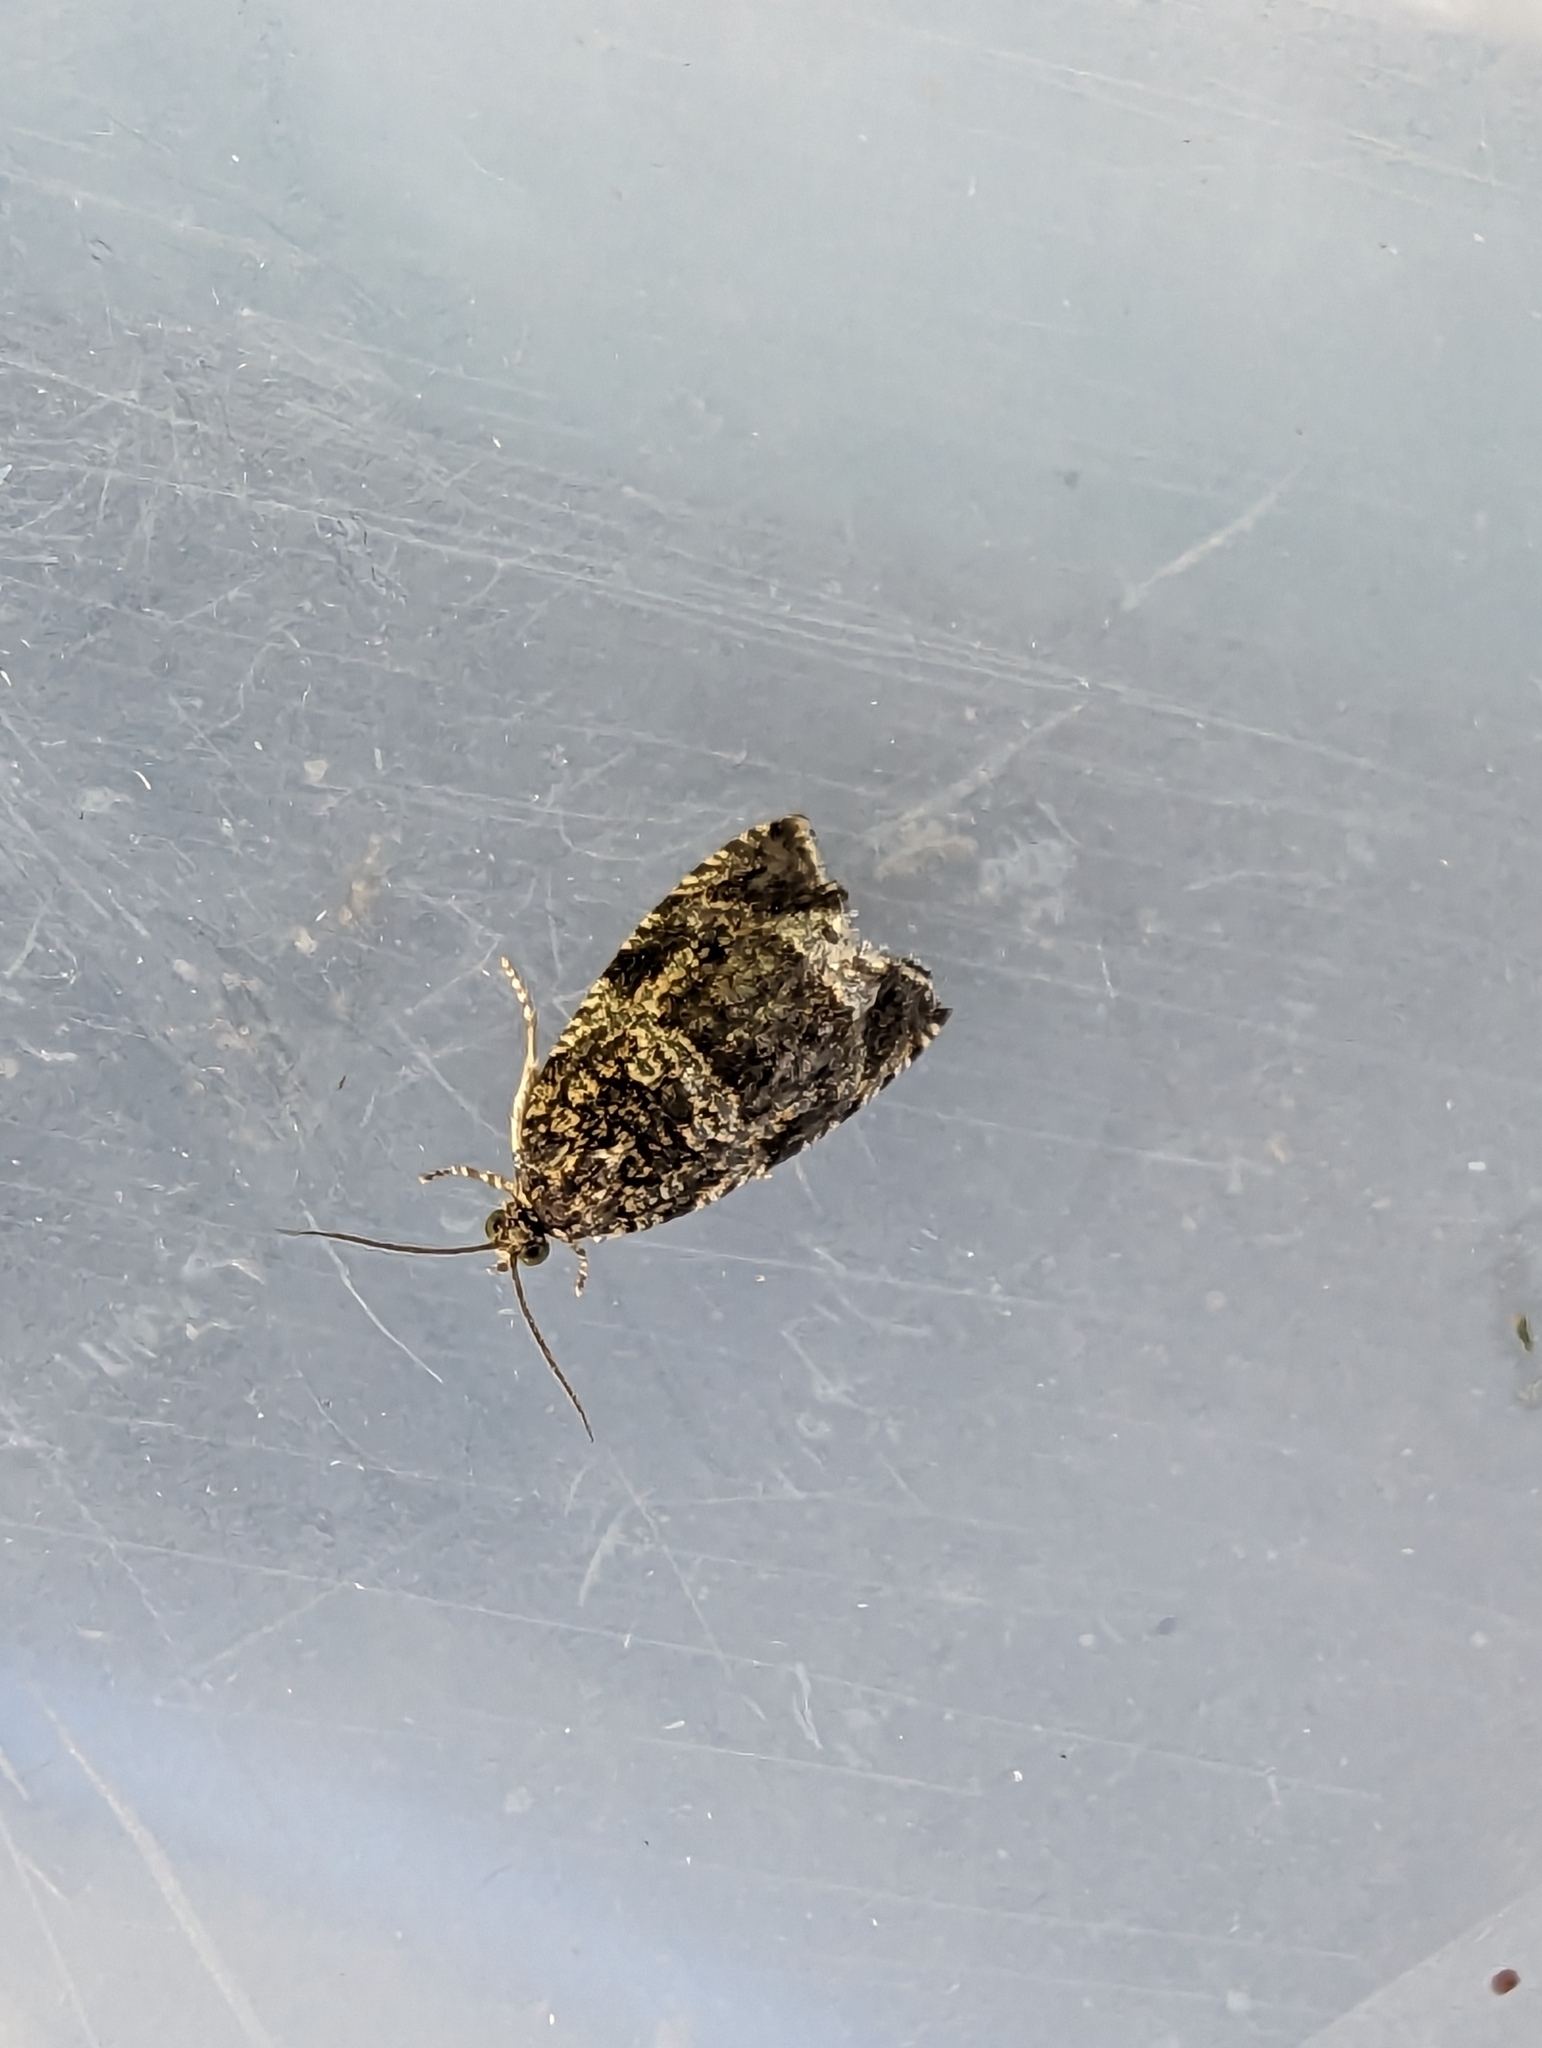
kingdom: Animalia
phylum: Arthropoda
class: Insecta
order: Lepidoptera
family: Tortricidae
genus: Syricoris
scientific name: Syricoris lacunana
